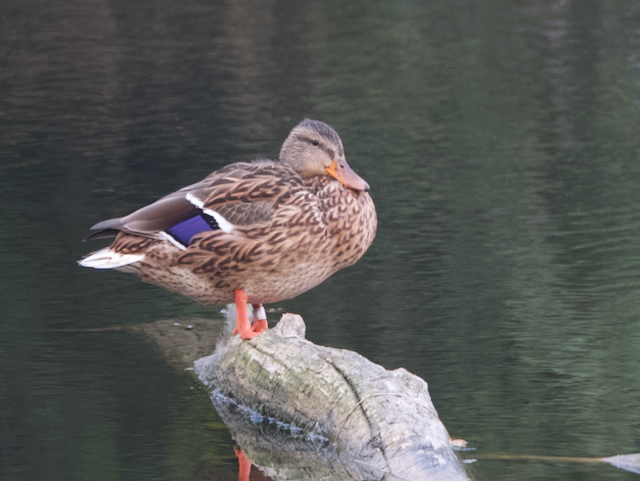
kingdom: Animalia
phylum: Chordata
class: Aves
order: Anseriformes
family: Anatidae
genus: Anas
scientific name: Anas platyrhynchos
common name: Mallard
